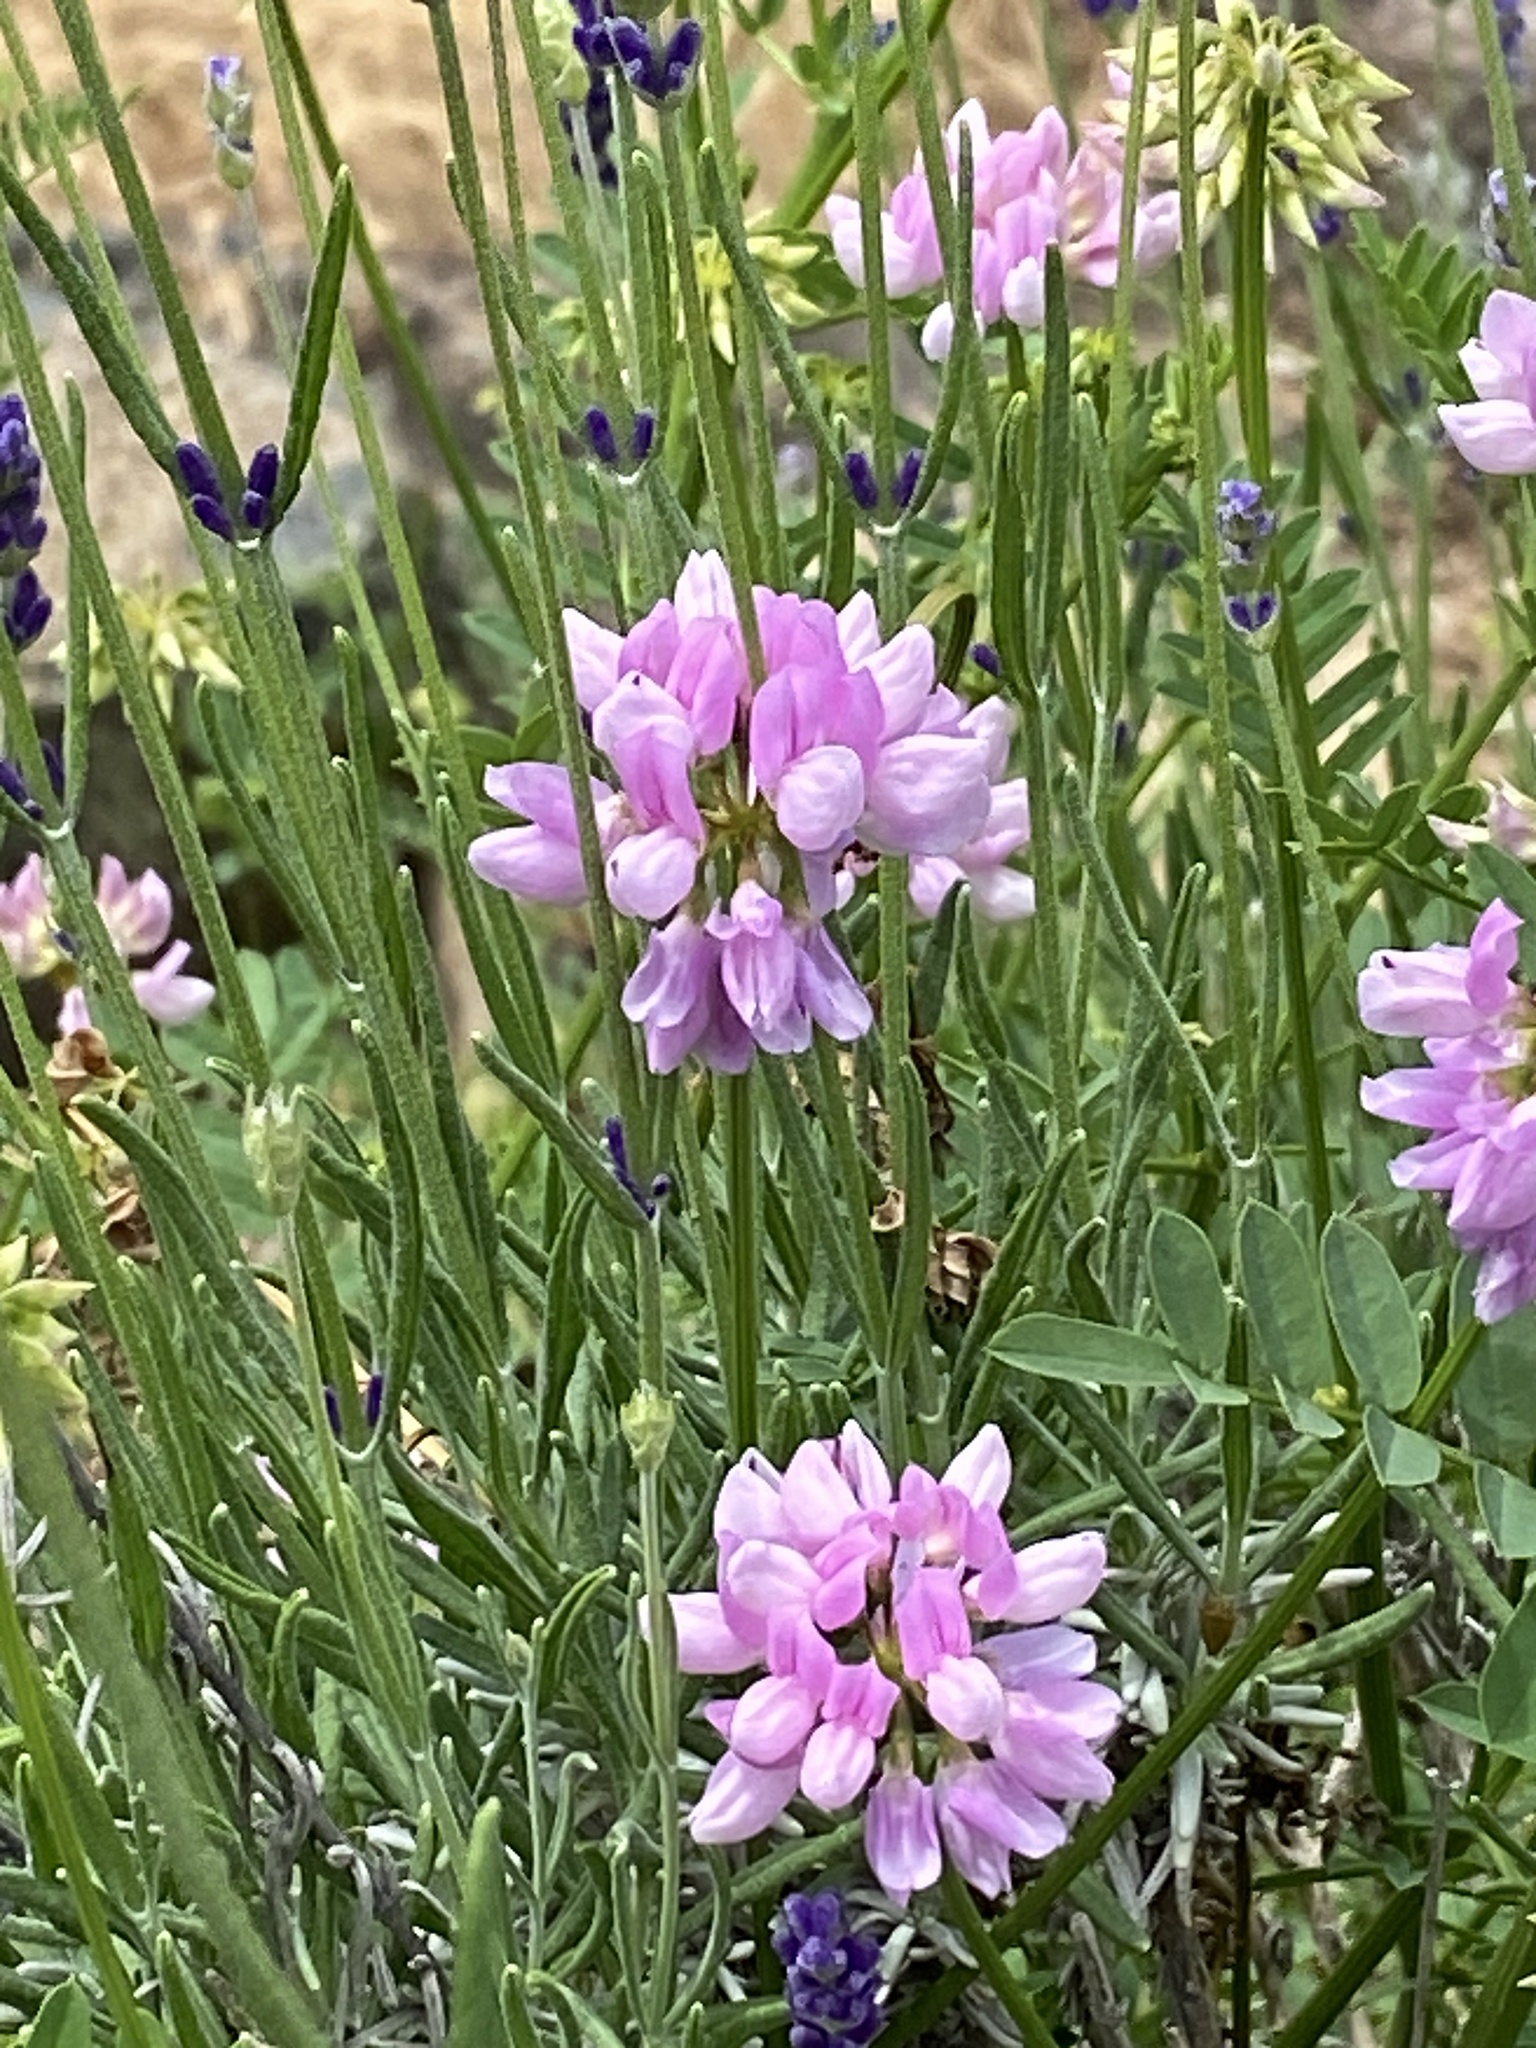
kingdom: Plantae
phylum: Tracheophyta
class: Magnoliopsida
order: Fabales
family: Fabaceae
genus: Coronilla
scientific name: Coronilla varia
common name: Crownvetch
